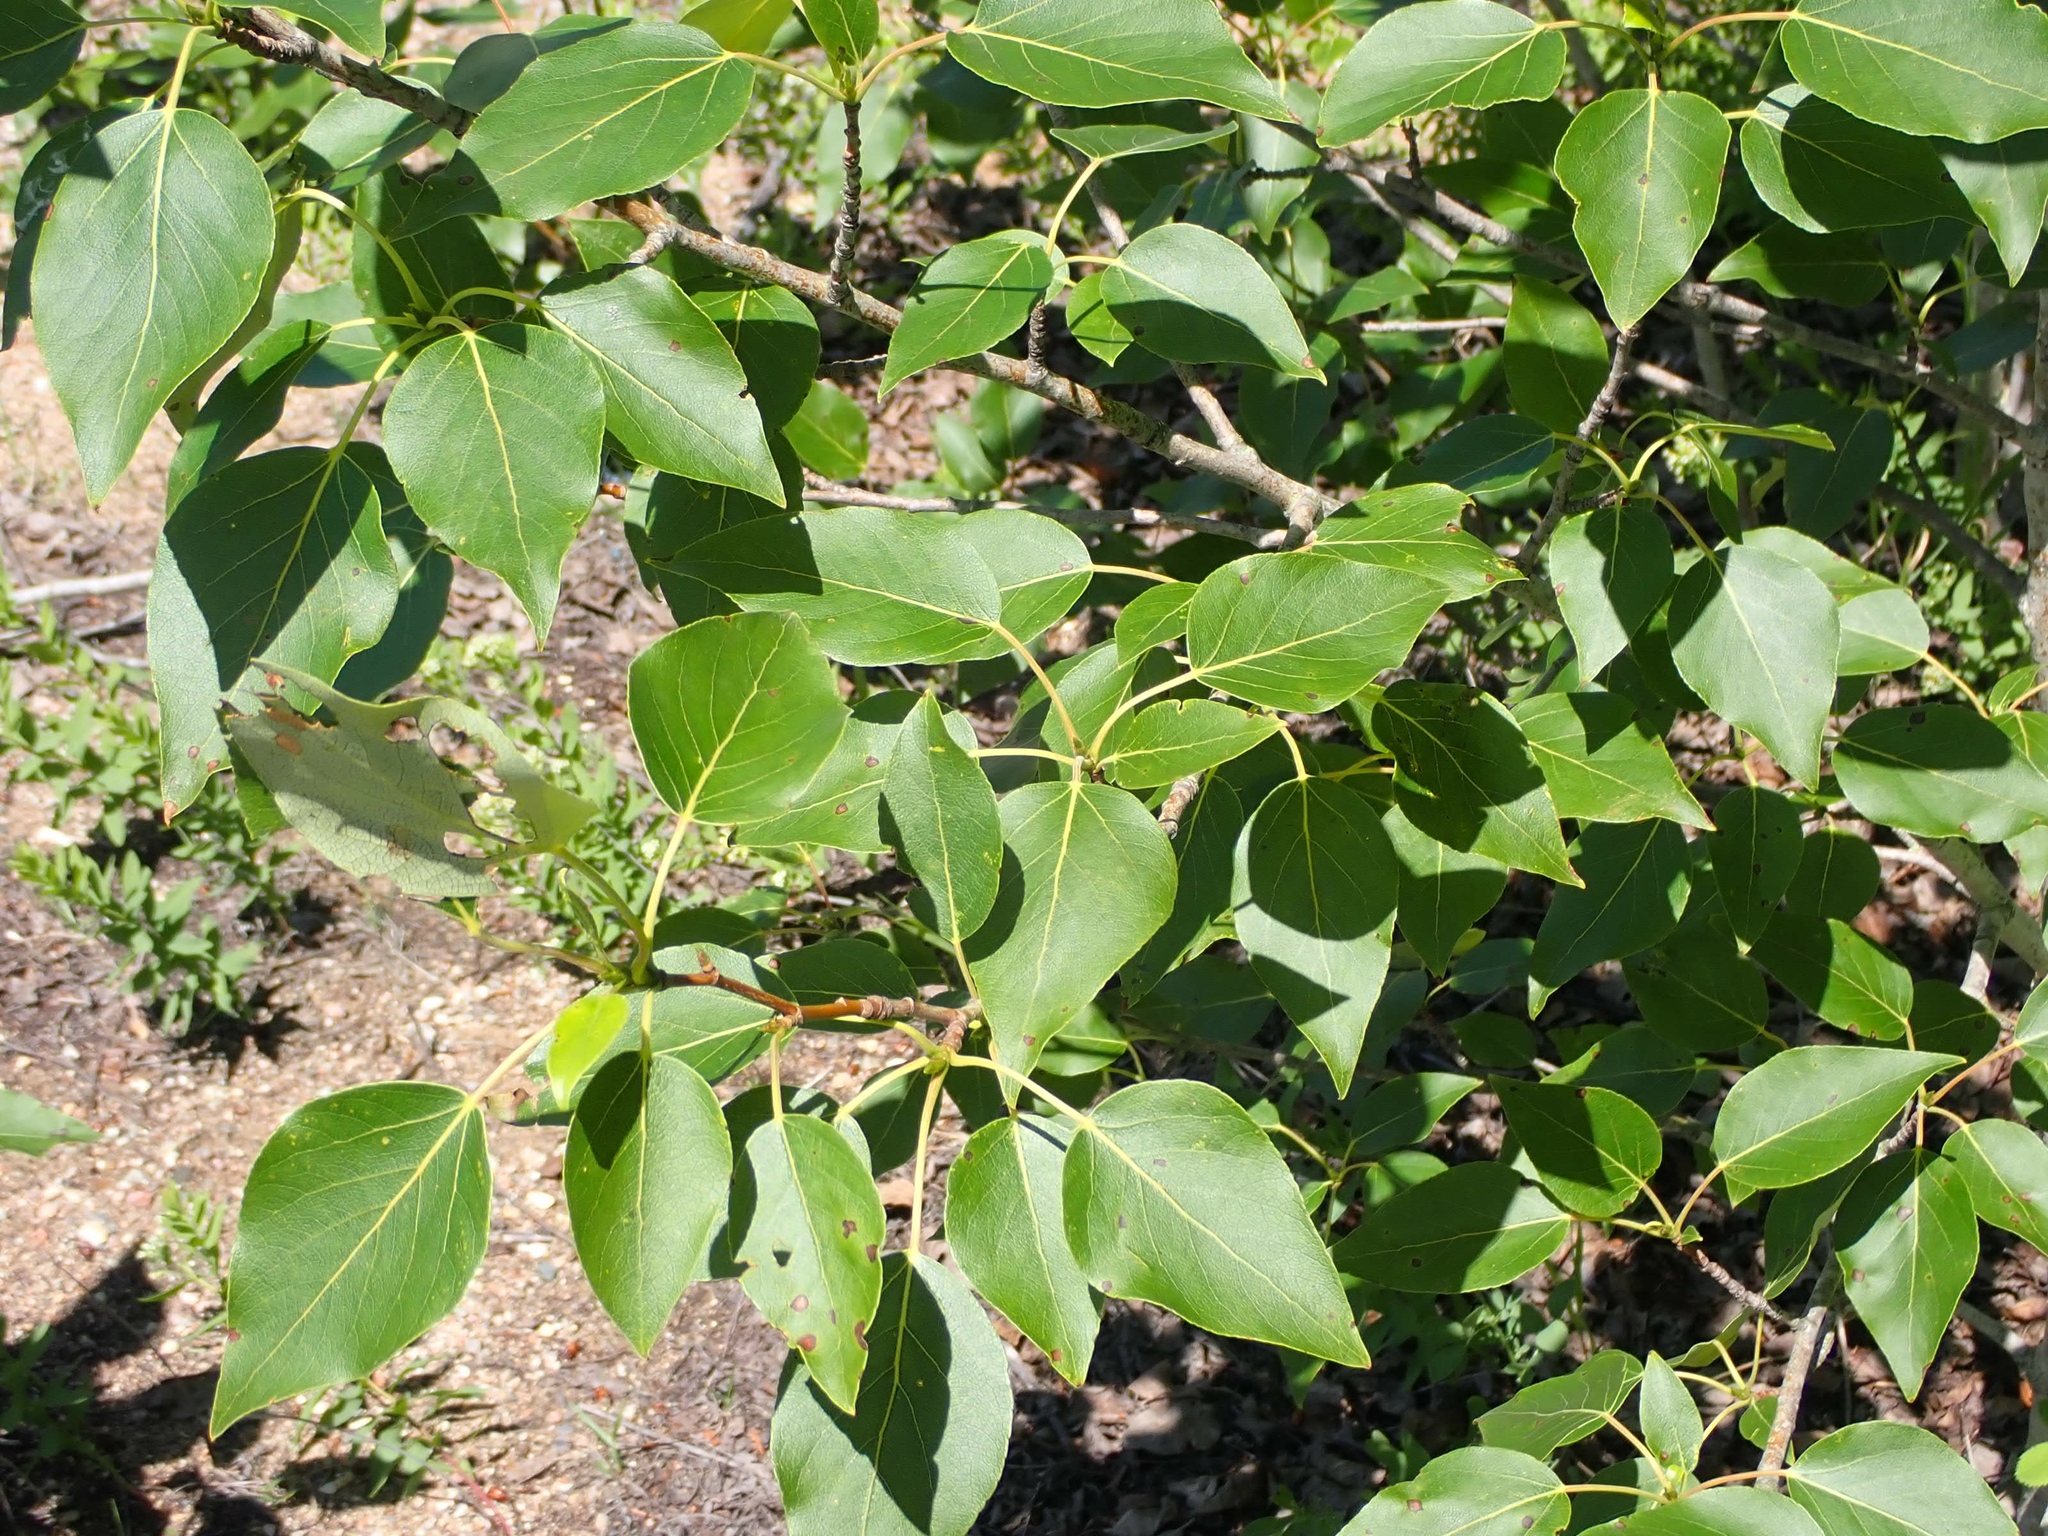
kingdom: Plantae
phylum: Tracheophyta
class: Magnoliopsida
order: Malpighiales
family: Salicaceae
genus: Populus
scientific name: Populus balsamifera
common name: Balsam poplar
